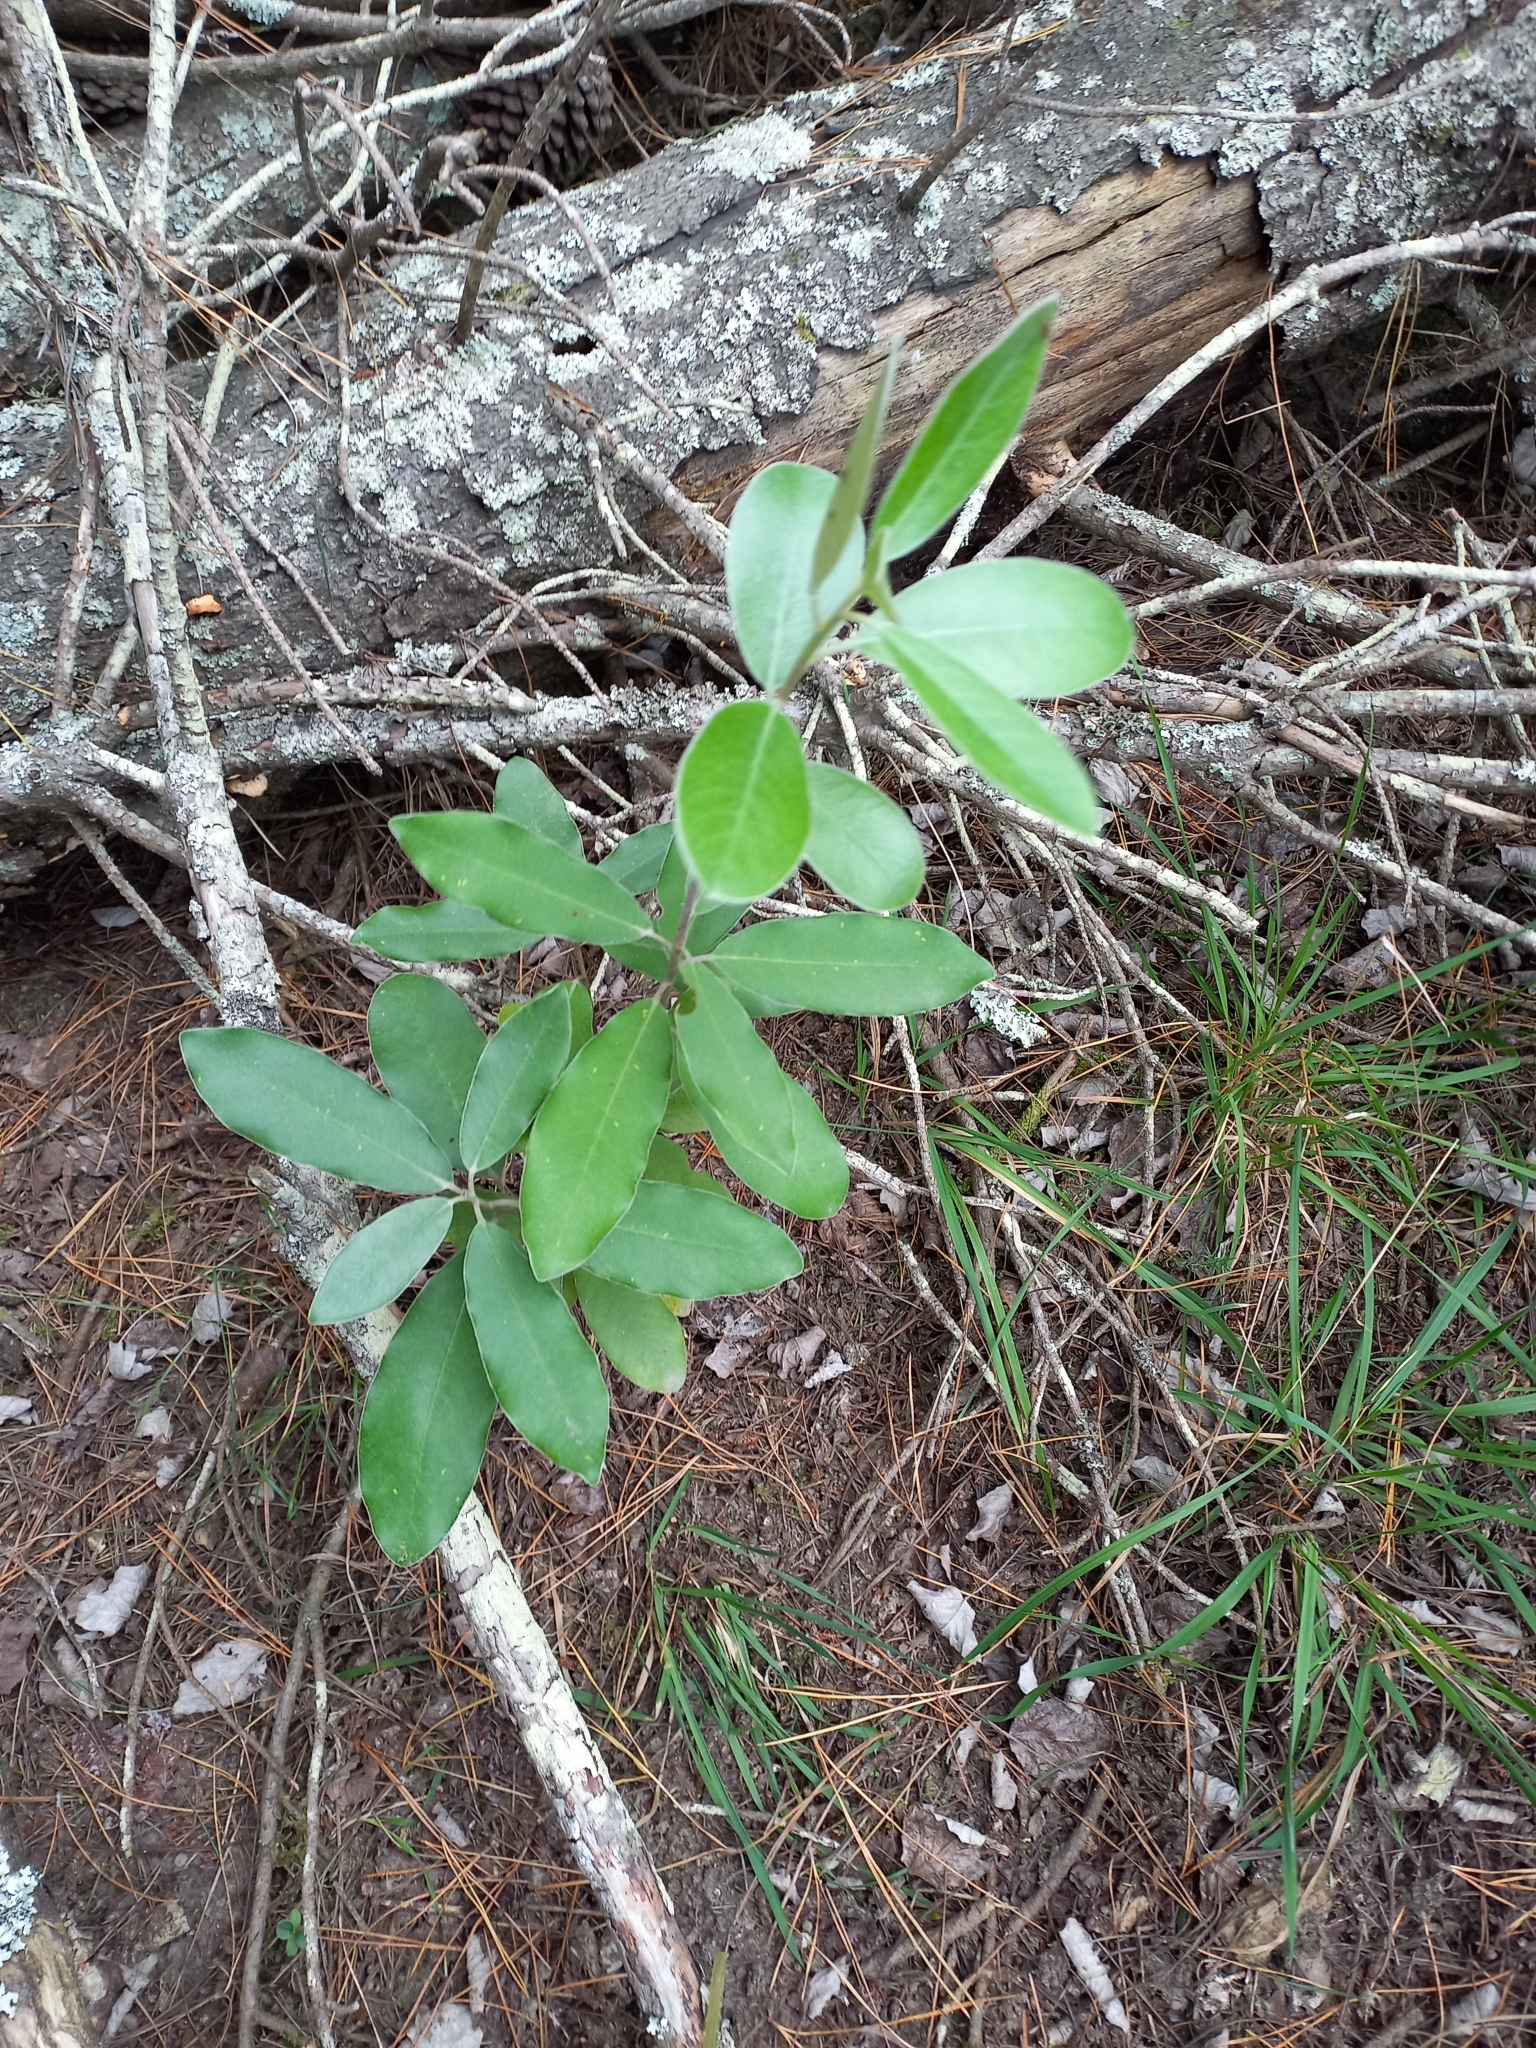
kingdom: Plantae
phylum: Tracheophyta
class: Magnoliopsida
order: Apiales
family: Pittosporaceae
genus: Pittosporum
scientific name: Pittosporum ralphii
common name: Ralph's desertwillow
